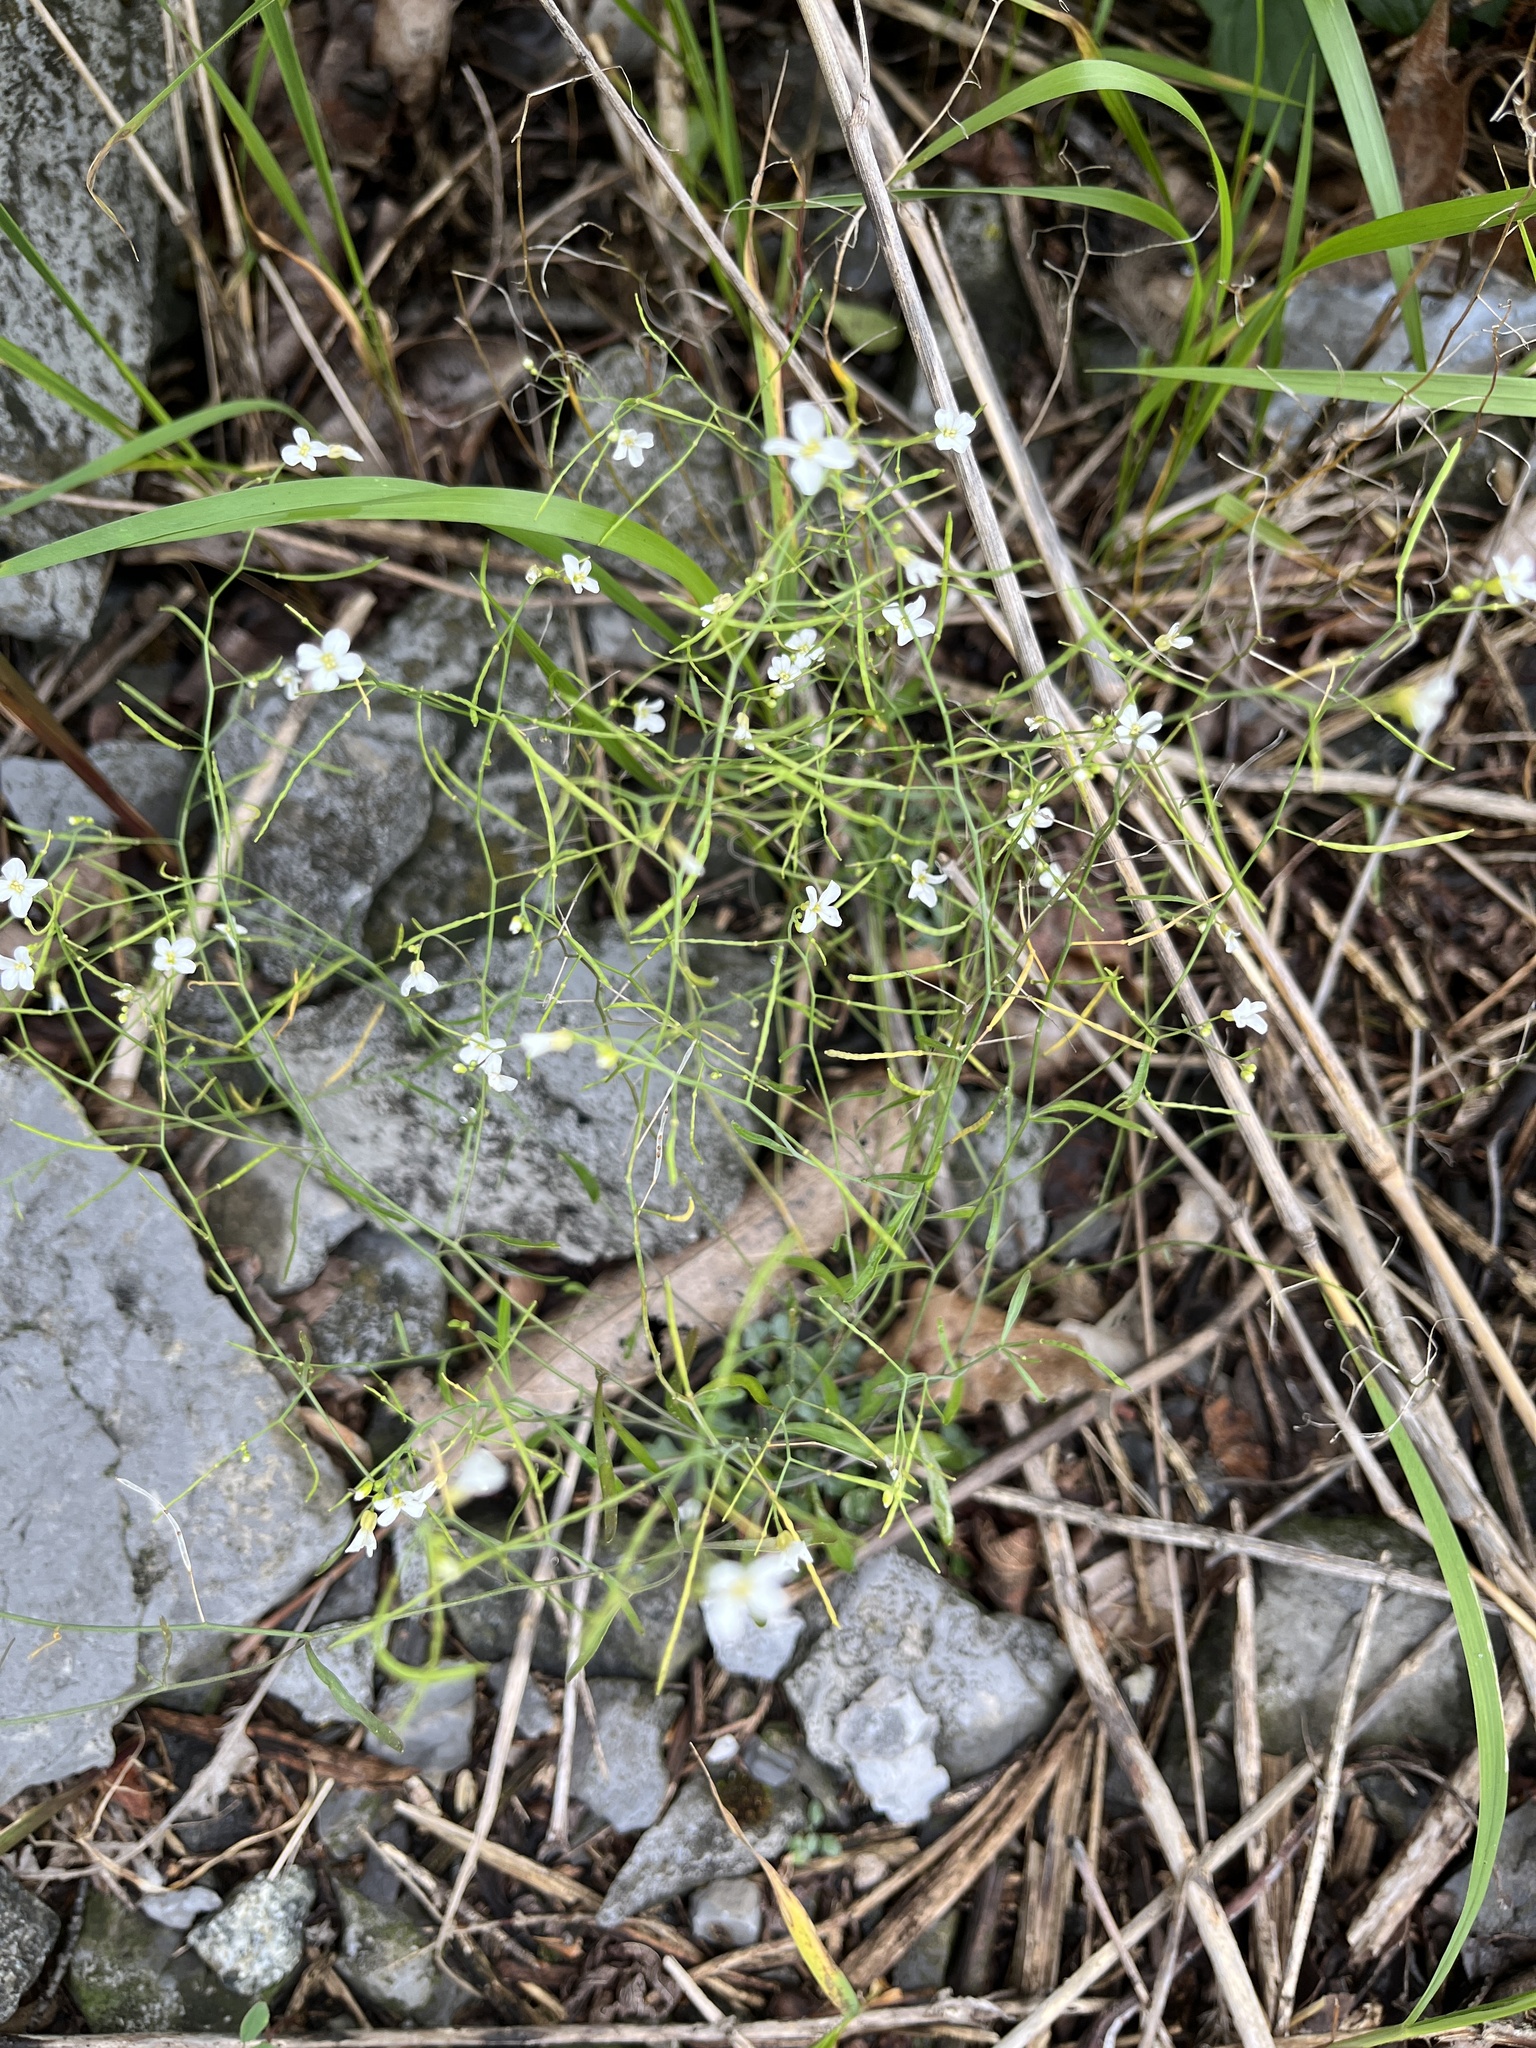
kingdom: Plantae
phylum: Tracheophyta
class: Magnoliopsida
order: Brassicales
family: Brassicaceae
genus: Arabidopsis
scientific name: Arabidopsis lyrata
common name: Lyrate rockcress
